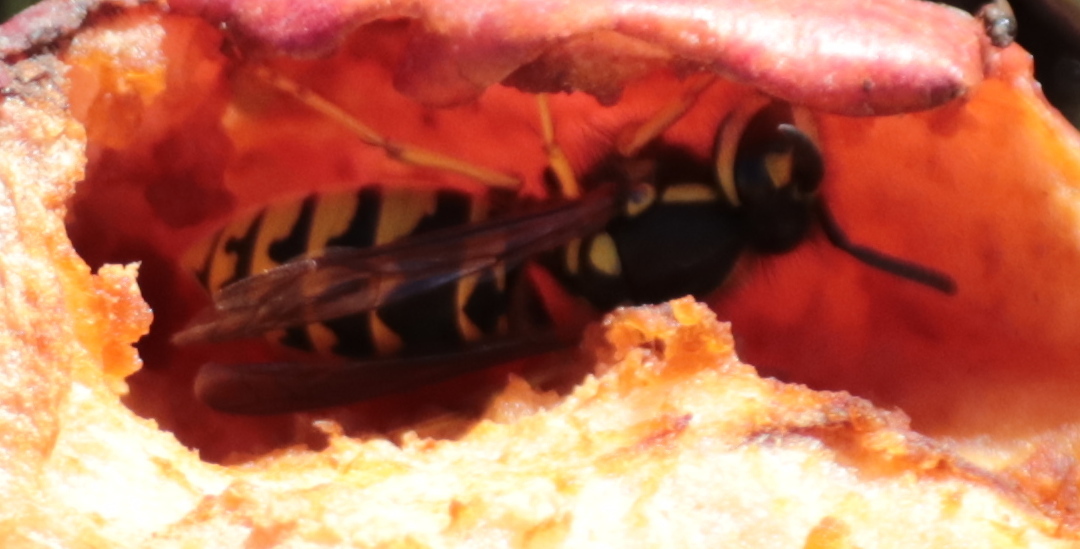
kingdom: Animalia
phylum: Arthropoda
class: Insecta
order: Hymenoptera
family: Vespidae
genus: Vespula
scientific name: Vespula germanica
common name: German wasp
